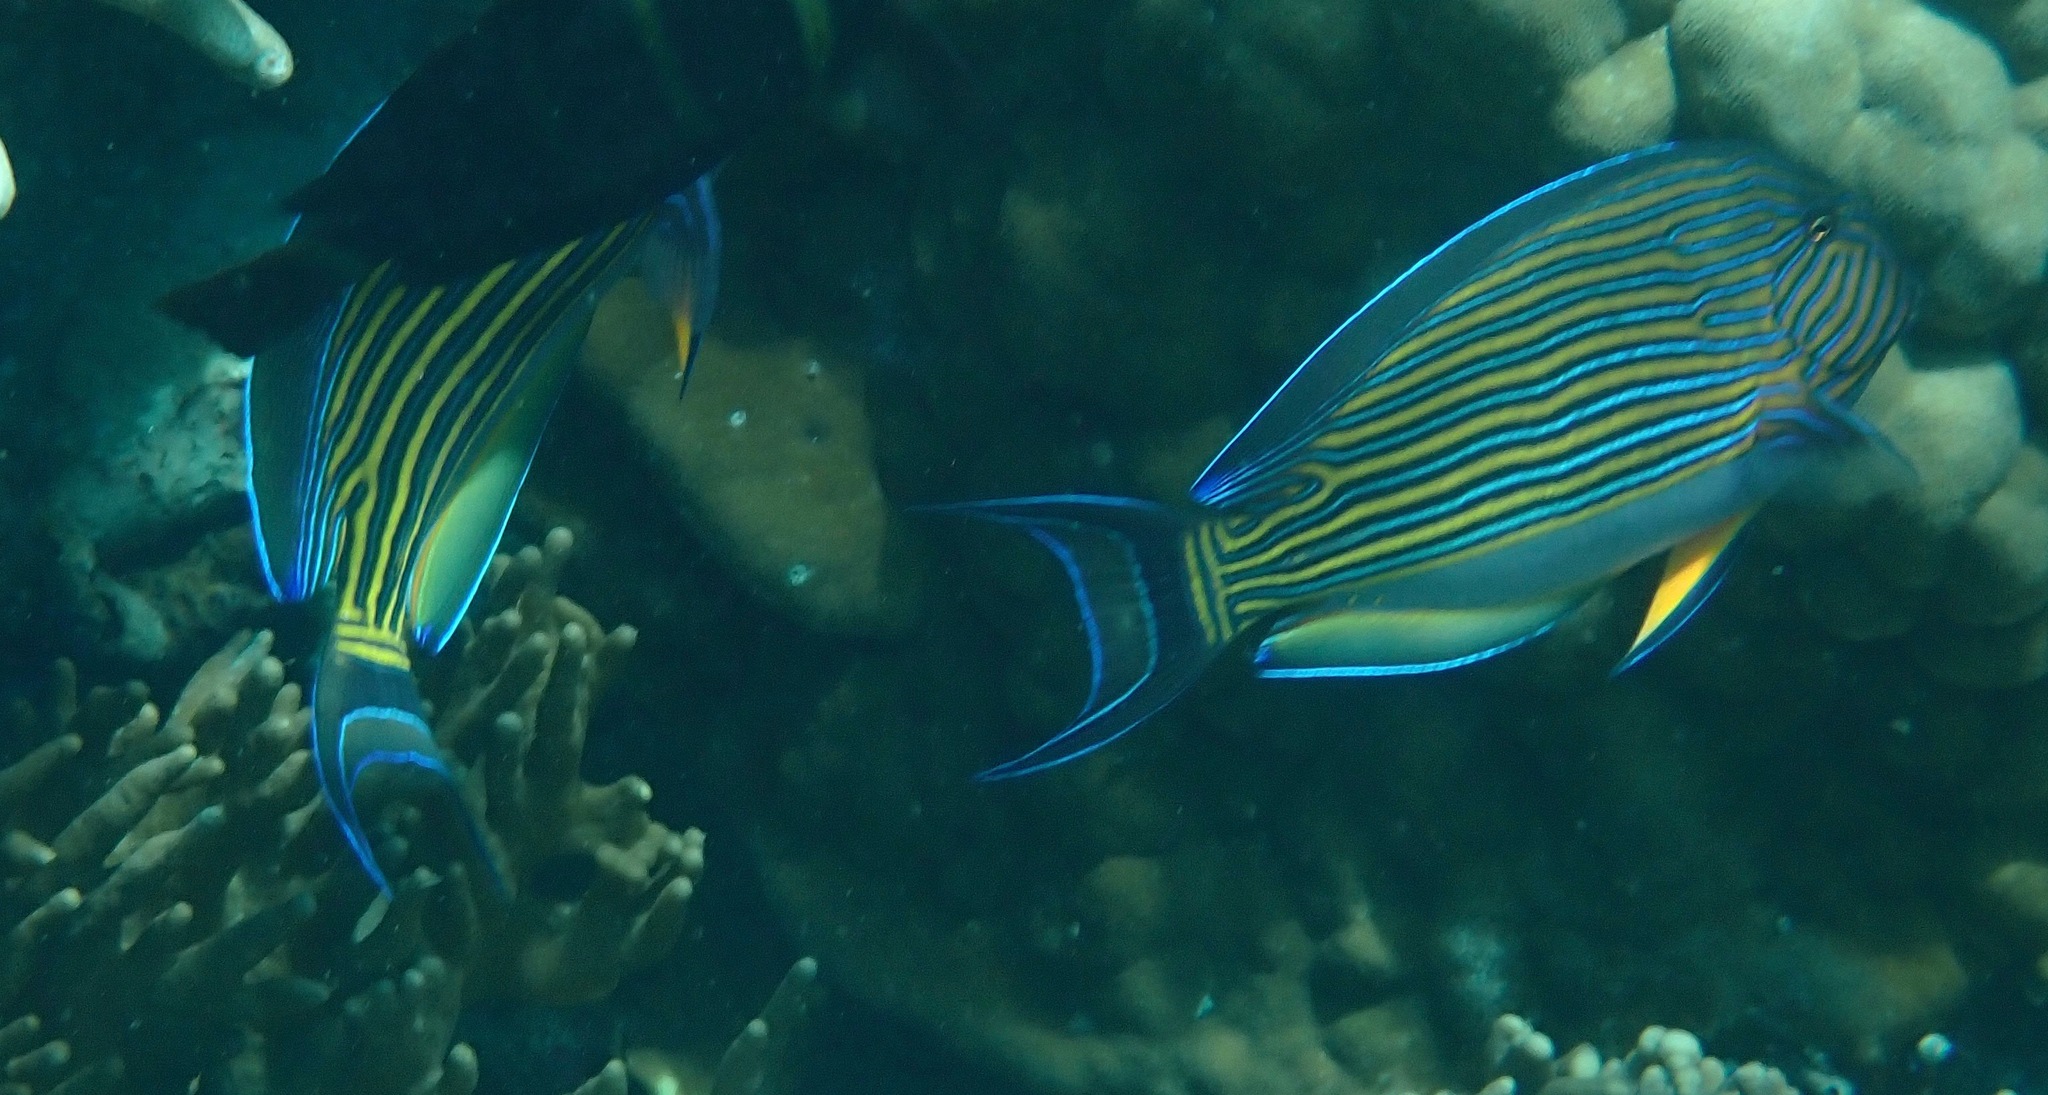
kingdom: Animalia
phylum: Chordata
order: Perciformes
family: Acanthuridae
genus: Acanthurus
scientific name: Acanthurus lineatus
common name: Striped surgeonfish
